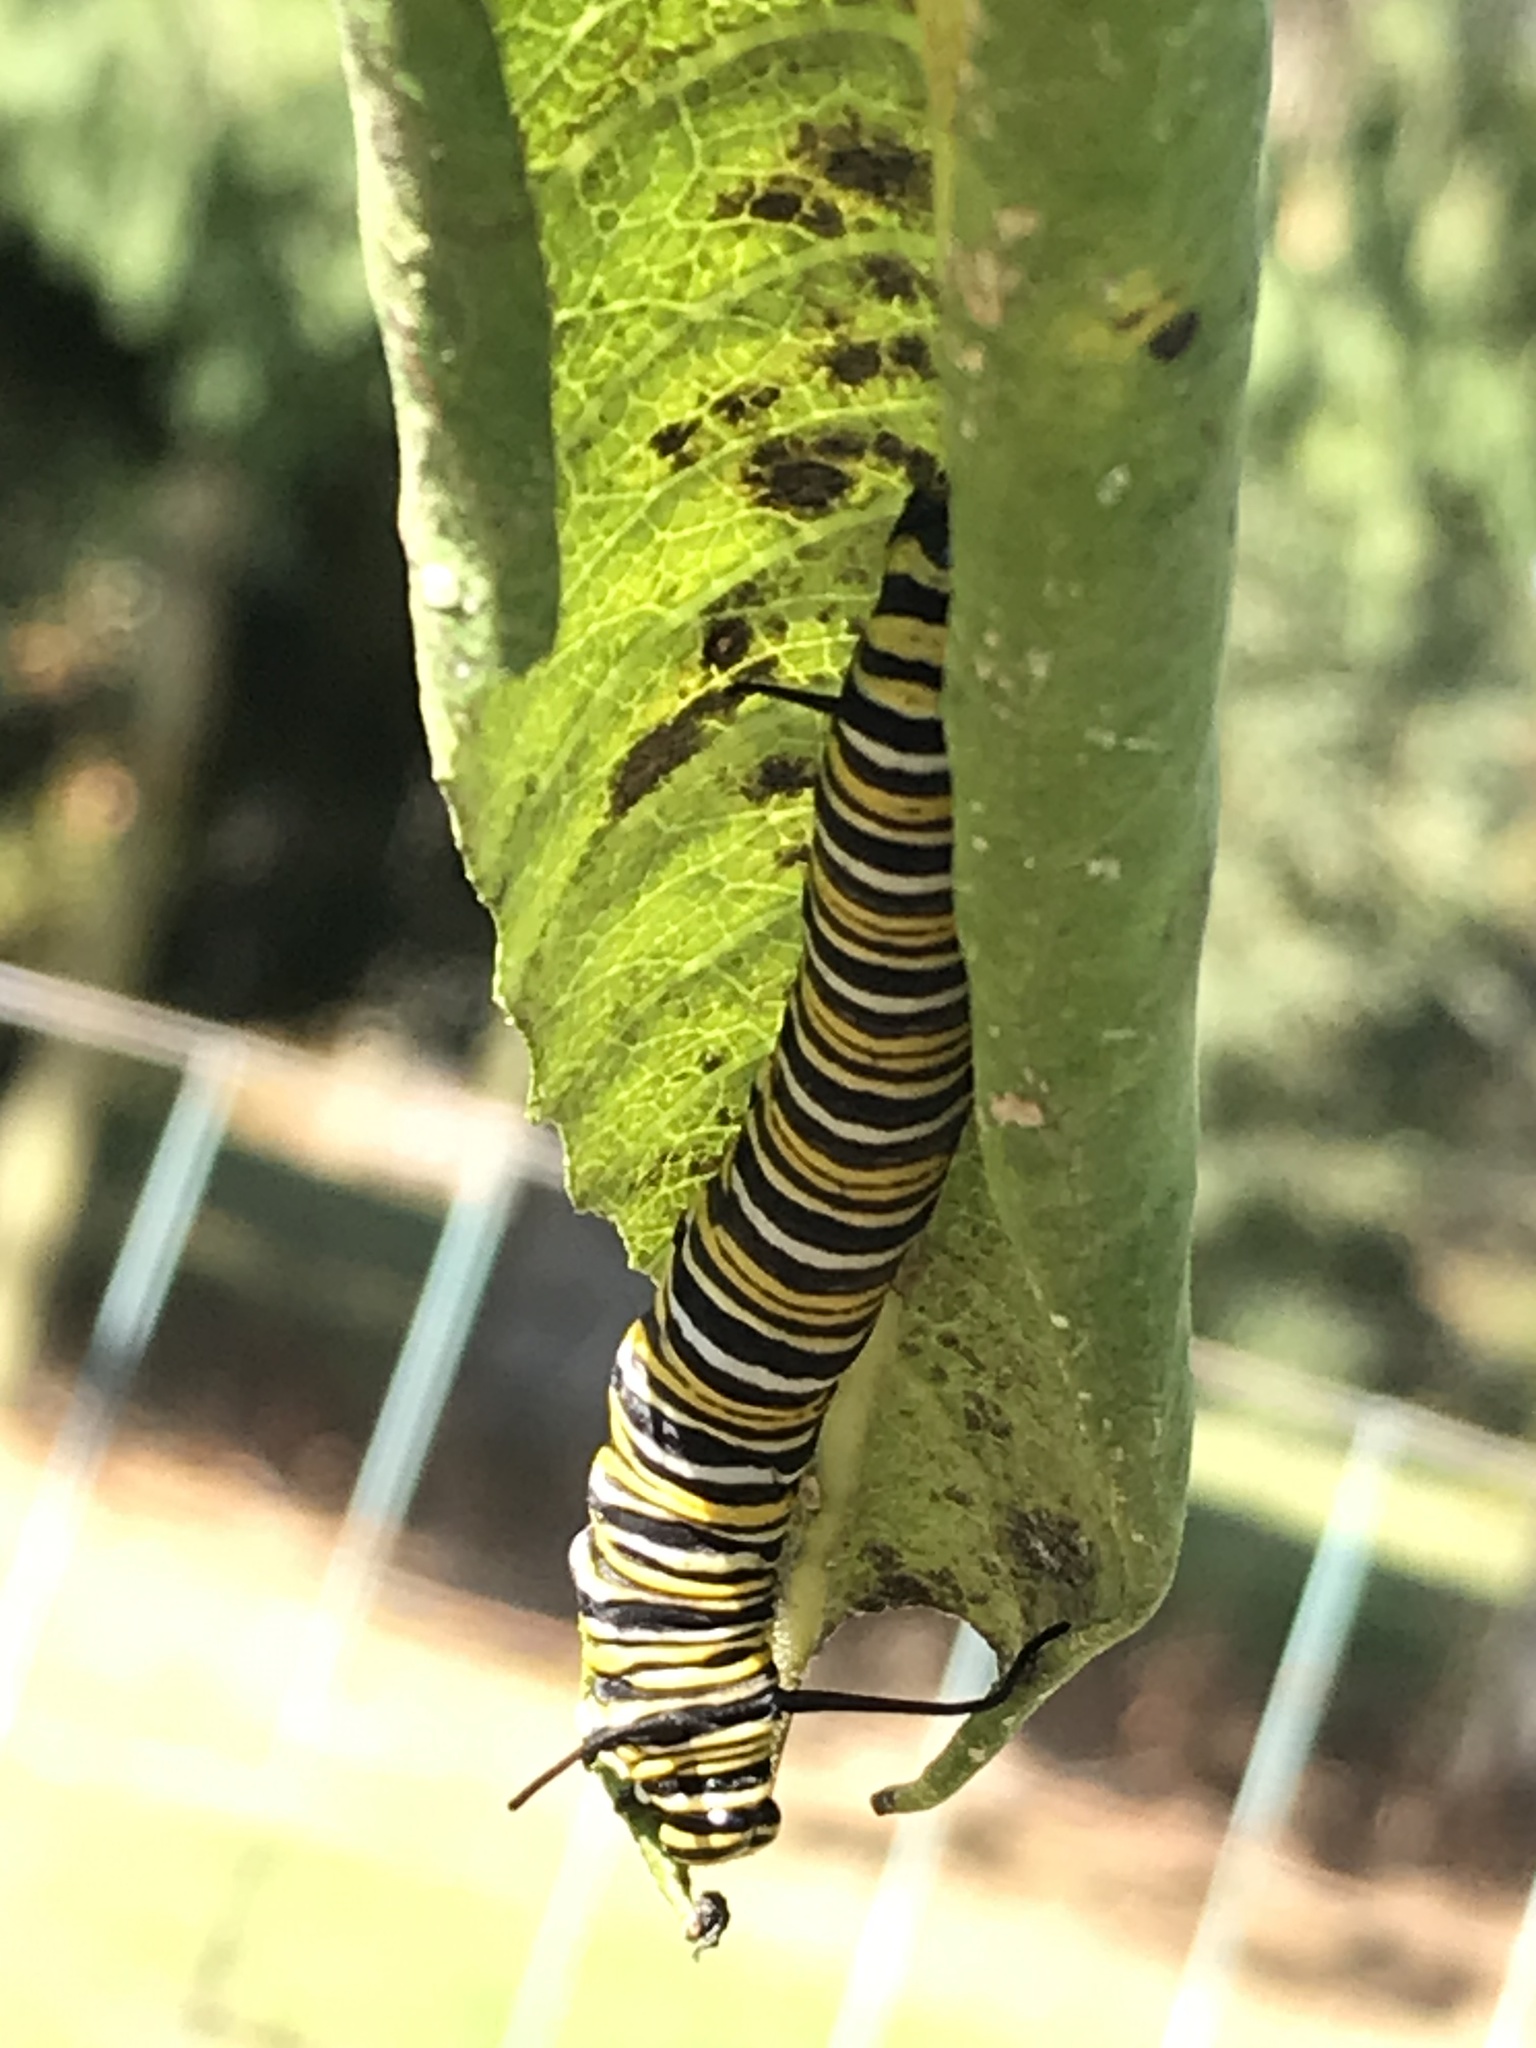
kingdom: Animalia
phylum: Arthropoda
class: Insecta
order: Lepidoptera
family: Nymphalidae
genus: Danaus
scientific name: Danaus plexippus
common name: Monarch
